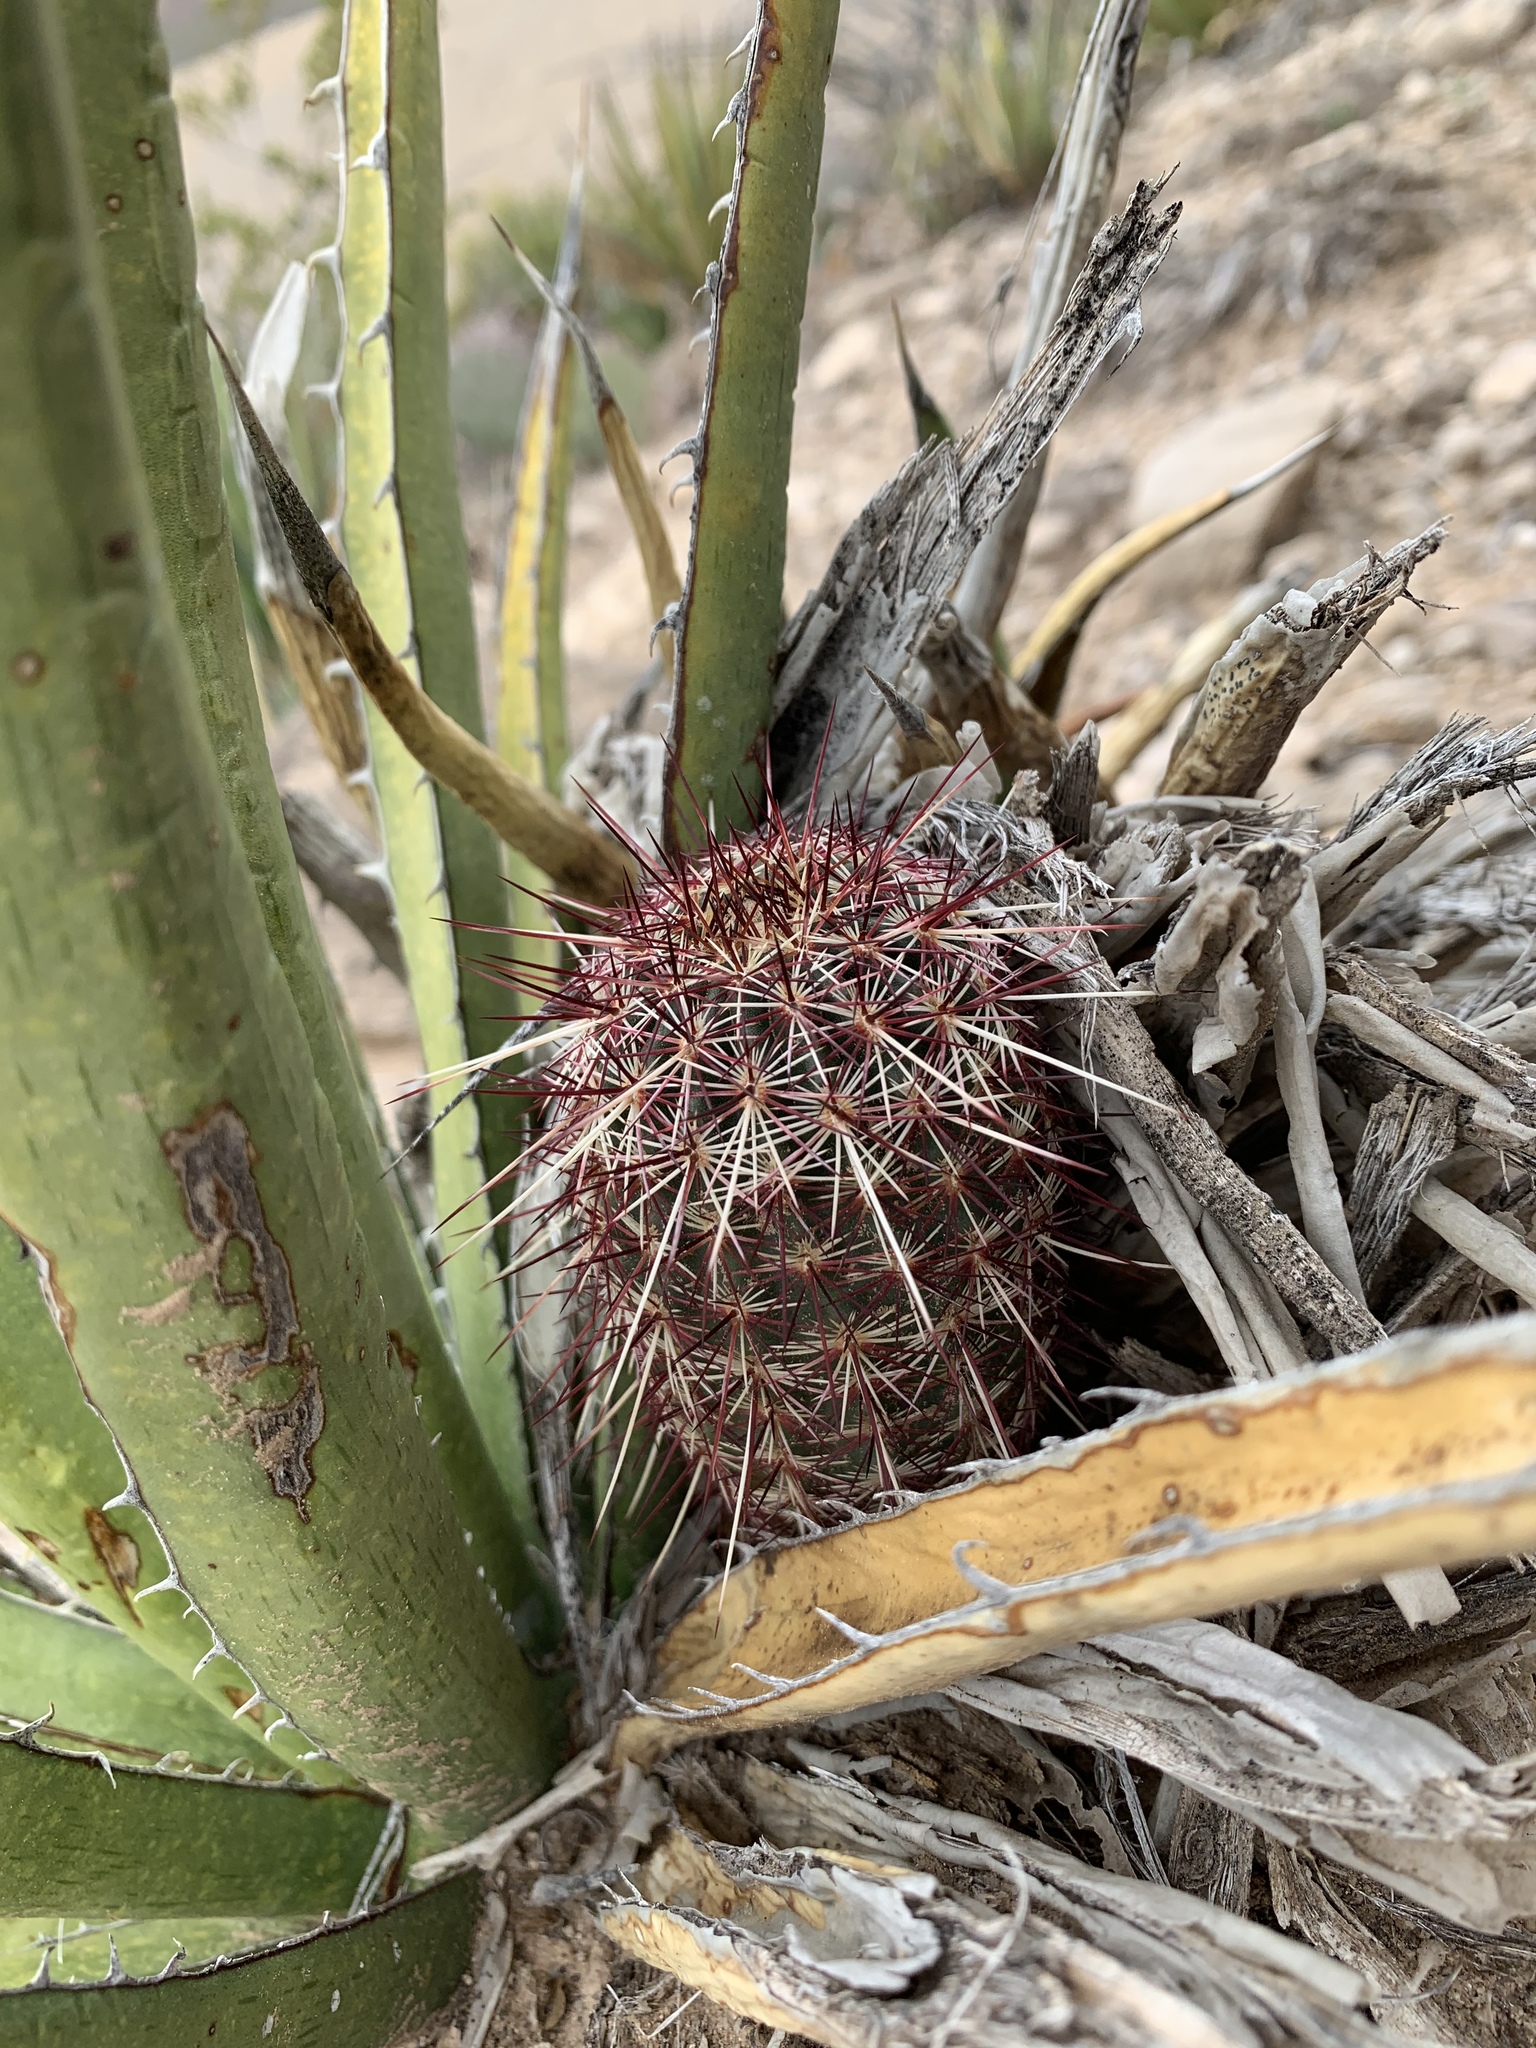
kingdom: Plantae
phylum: Tracheophyta
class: Magnoliopsida
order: Caryophyllales
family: Cactaceae
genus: Echinocereus
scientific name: Echinocereus viridiflorus
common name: Nylon hedgehog cactus
